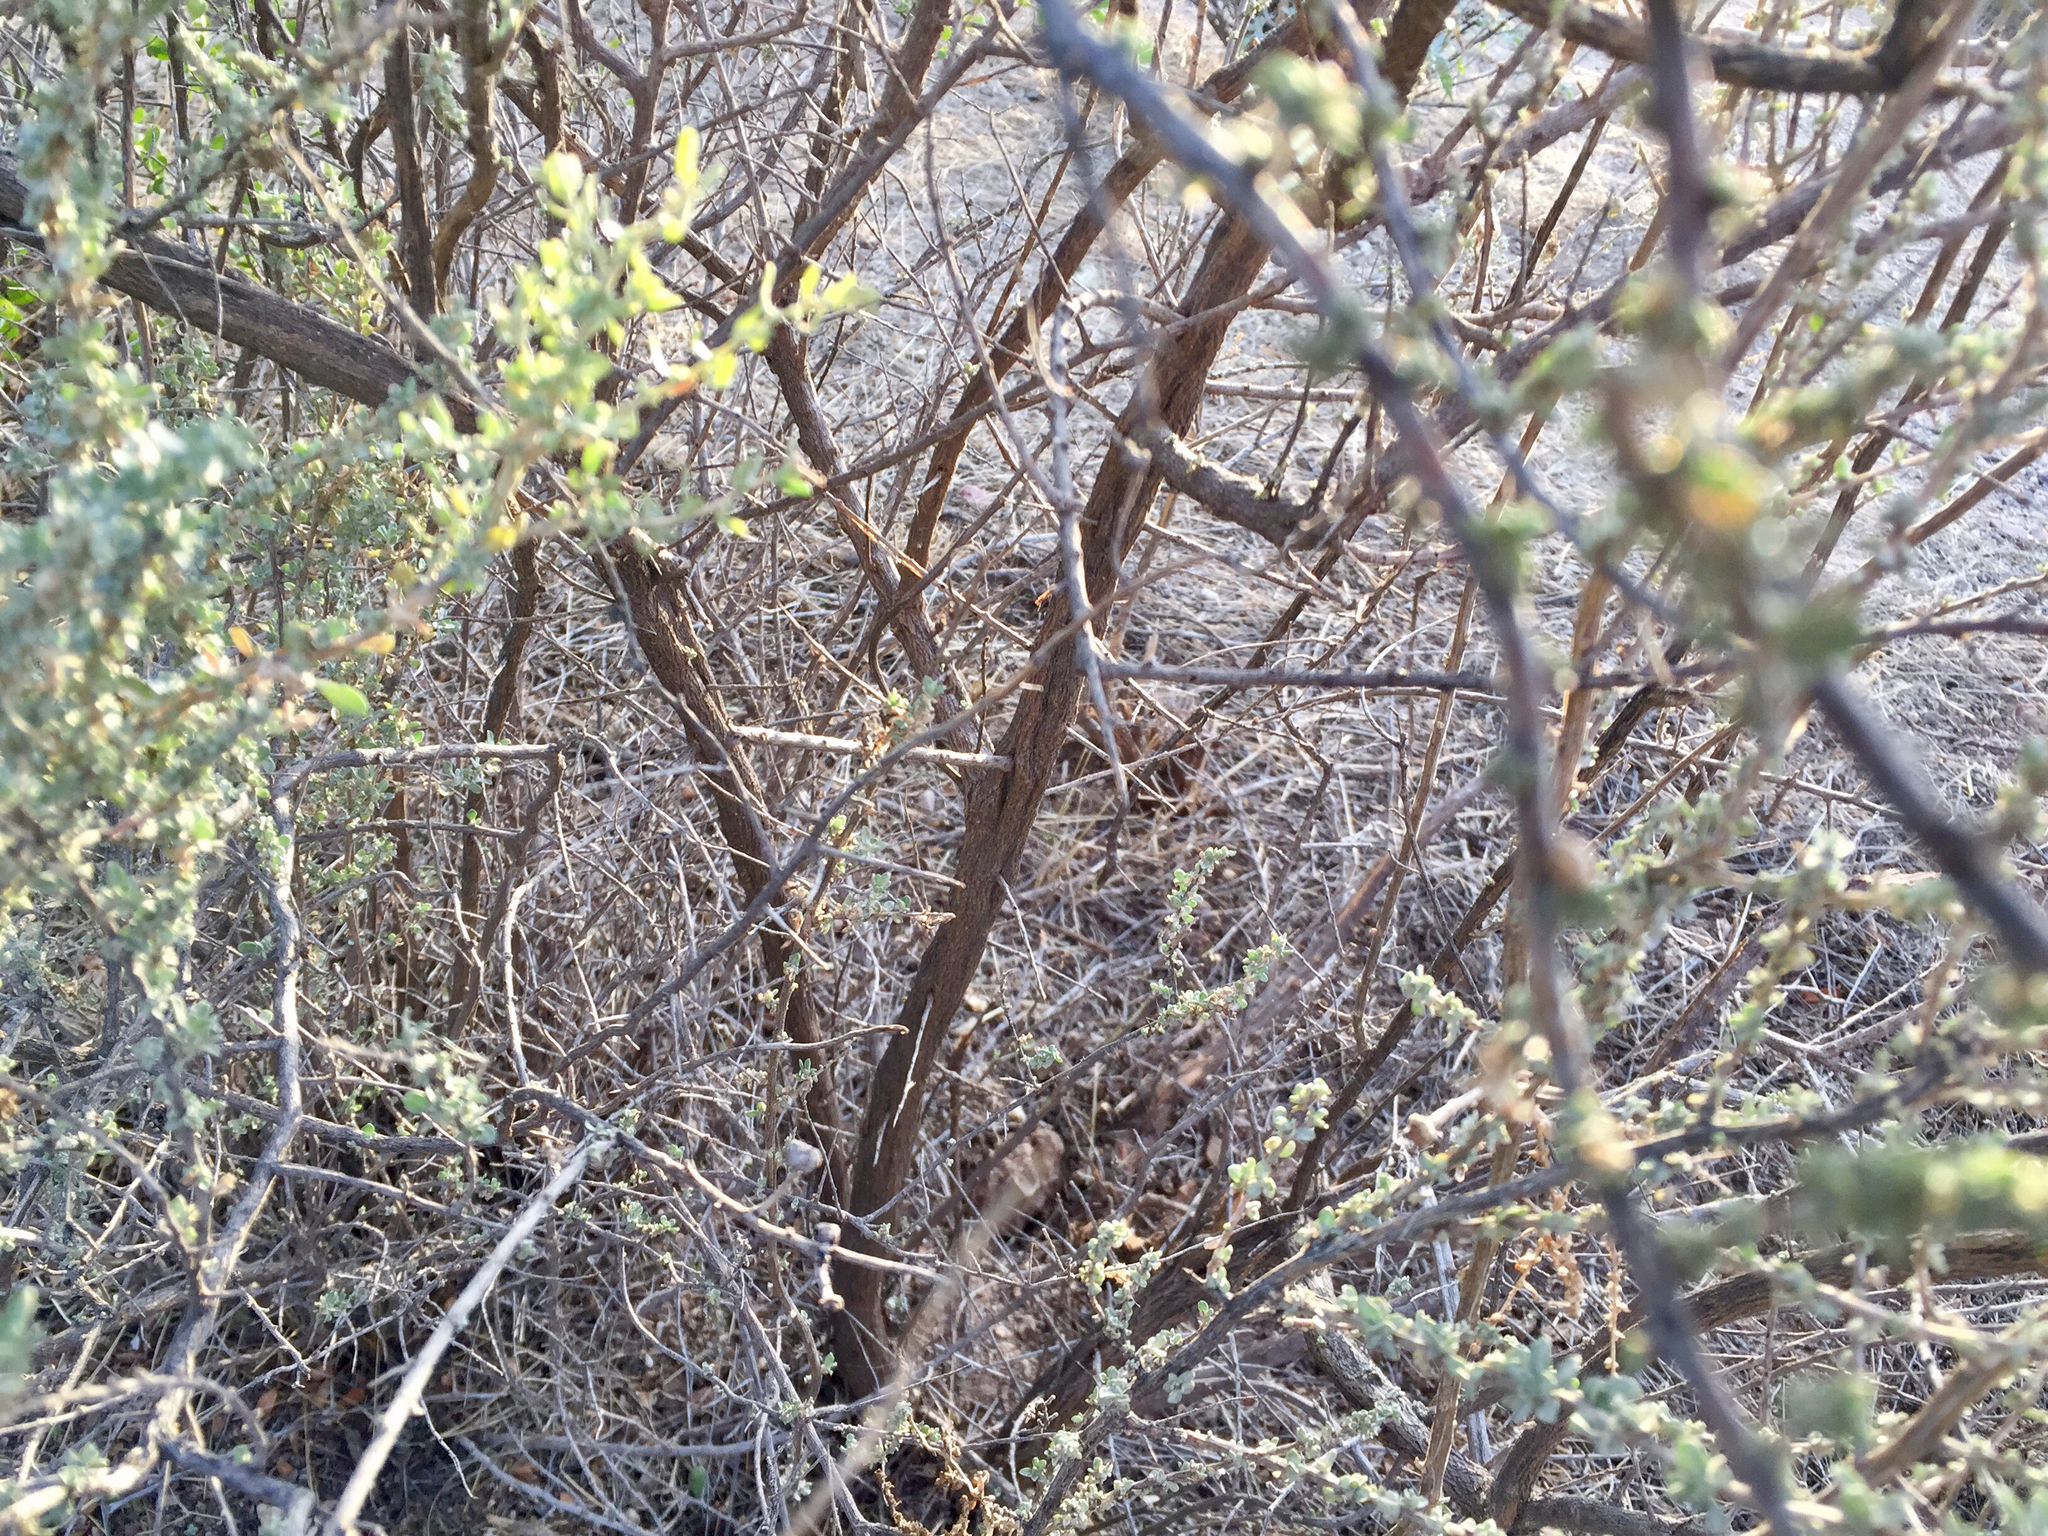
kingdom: Plantae
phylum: Tracheophyta
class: Magnoliopsida
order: Caryophyllales
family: Amaranthaceae
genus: Atriplex
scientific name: Atriplex canescens
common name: Four-wing saltbush
